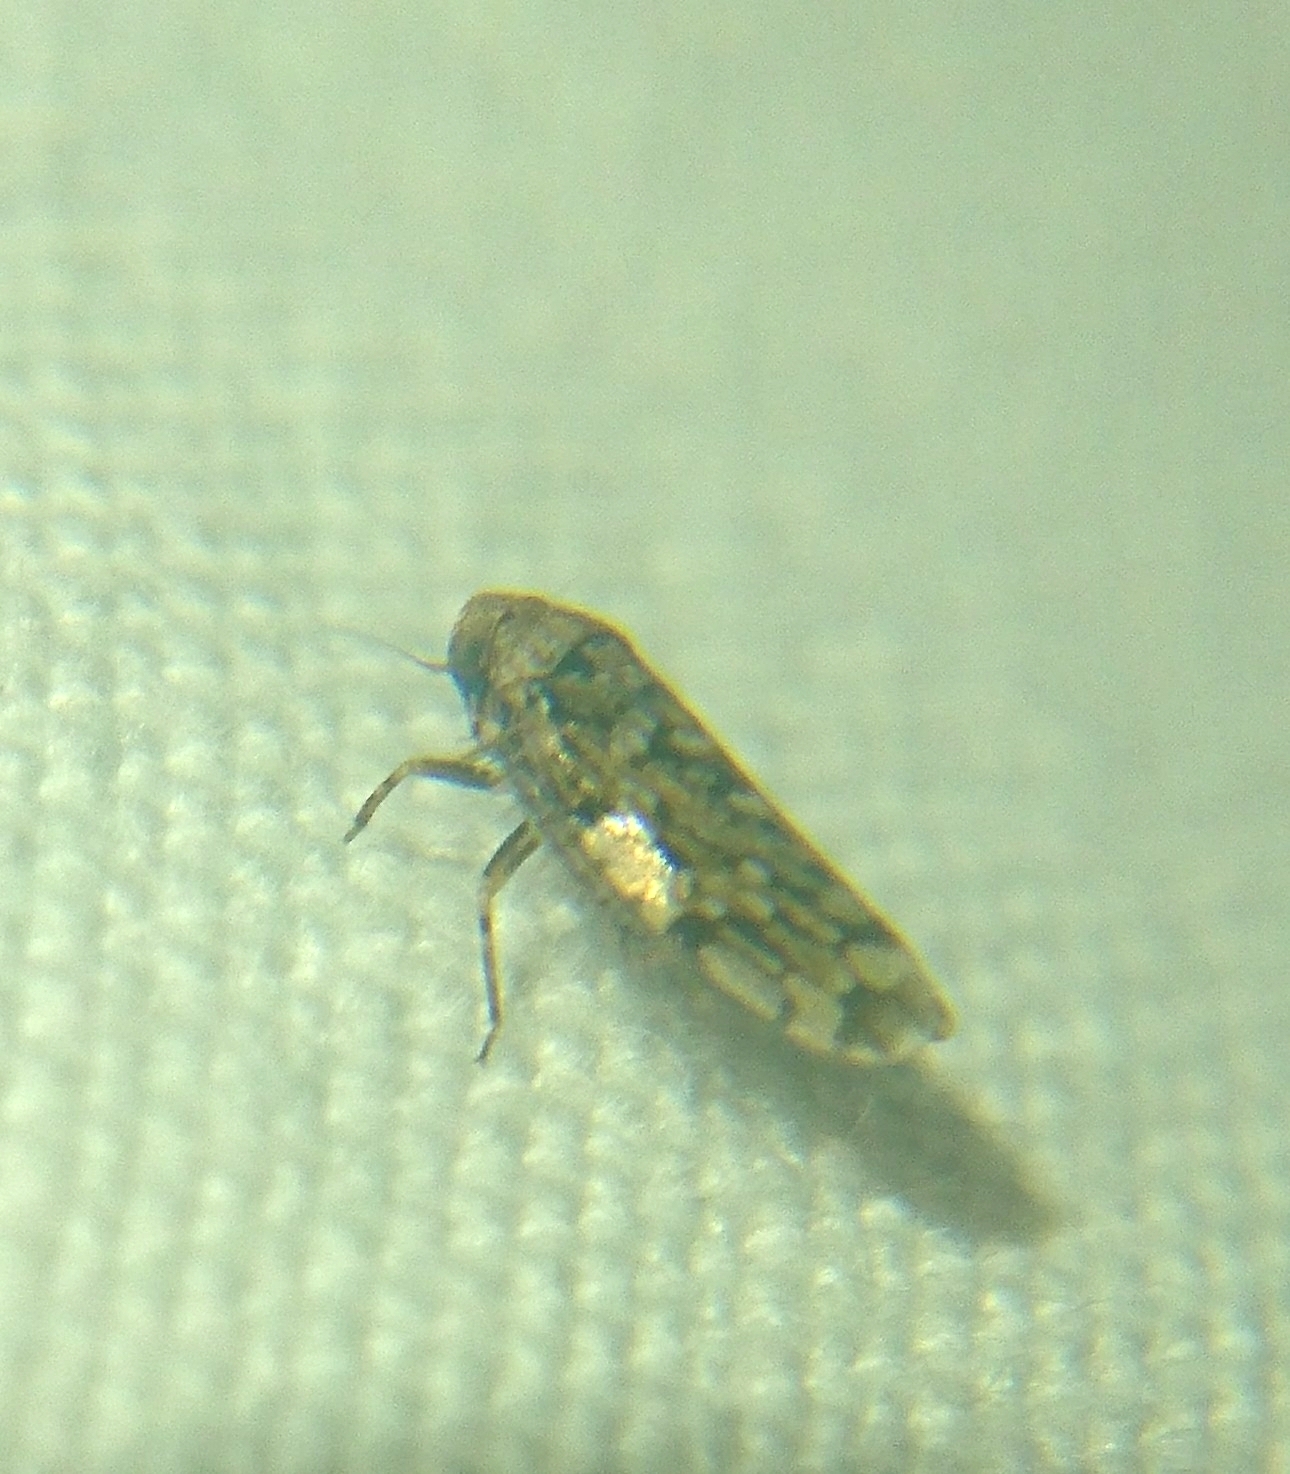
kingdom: Animalia
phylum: Arthropoda
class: Insecta
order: Hemiptera
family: Cicadellidae
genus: Xestocephalus
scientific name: Xestocephalus tessellatus
